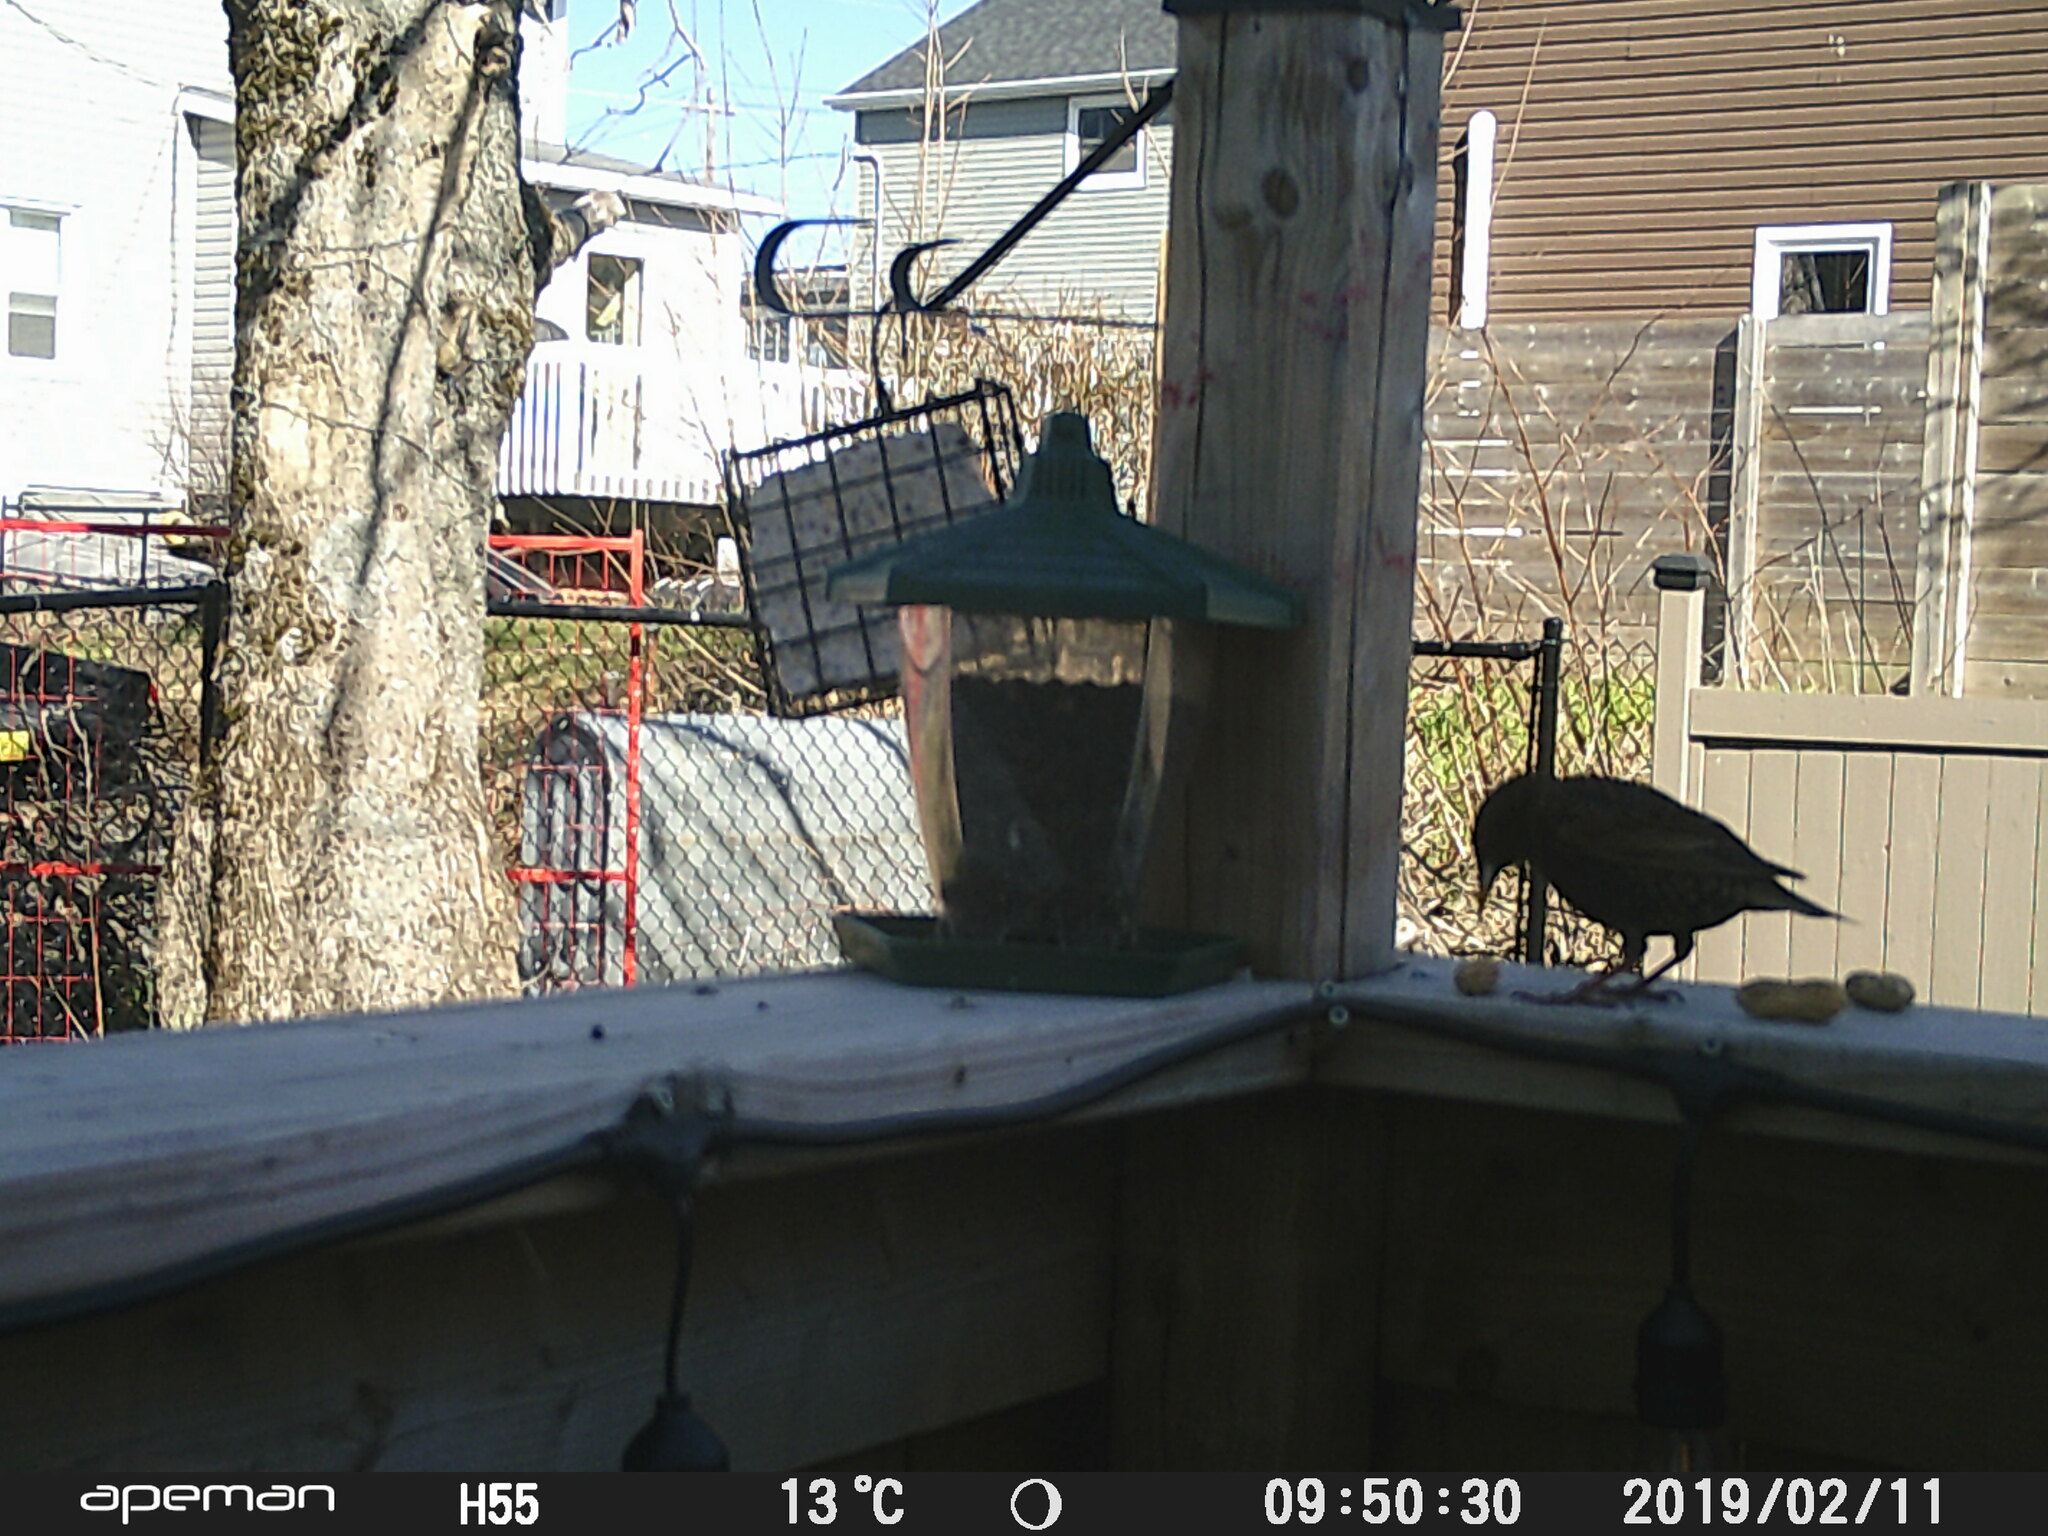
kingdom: Animalia
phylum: Chordata
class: Aves
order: Passeriformes
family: Sturnidae
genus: Sturnus
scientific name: Sturnus vulgaris
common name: Common starling
